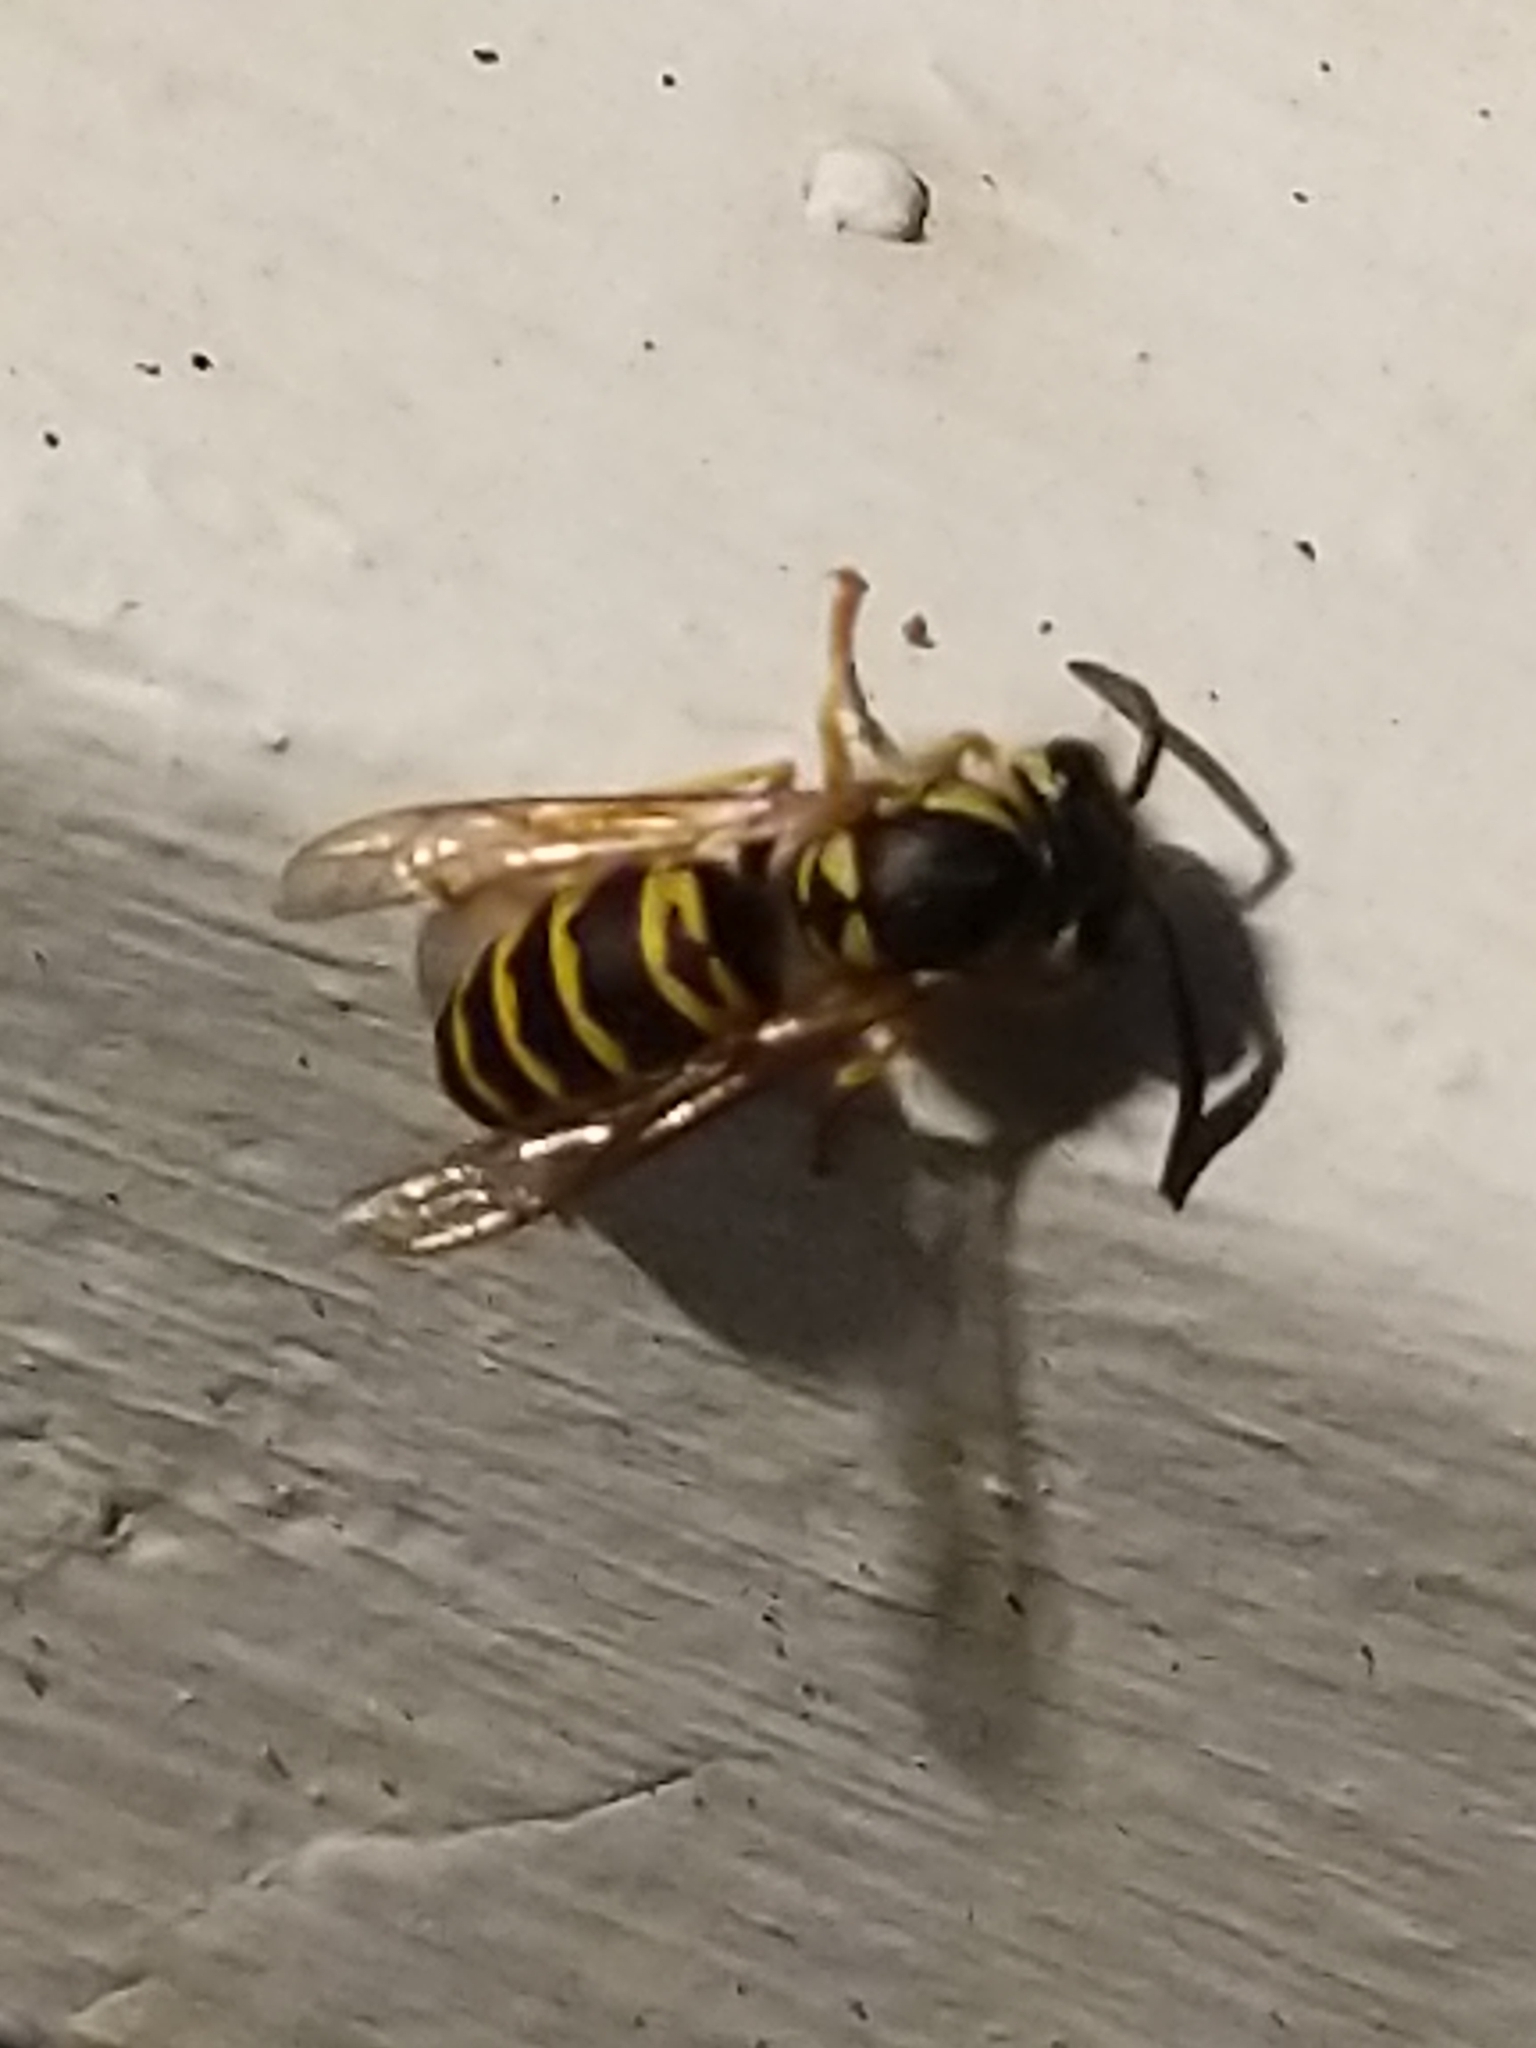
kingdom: Animalia
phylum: Arthropoda
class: Insecta
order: Hymenoptera
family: Vespidae
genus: Vespula
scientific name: Vespula maculifrons
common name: Eastern yellowjacket
